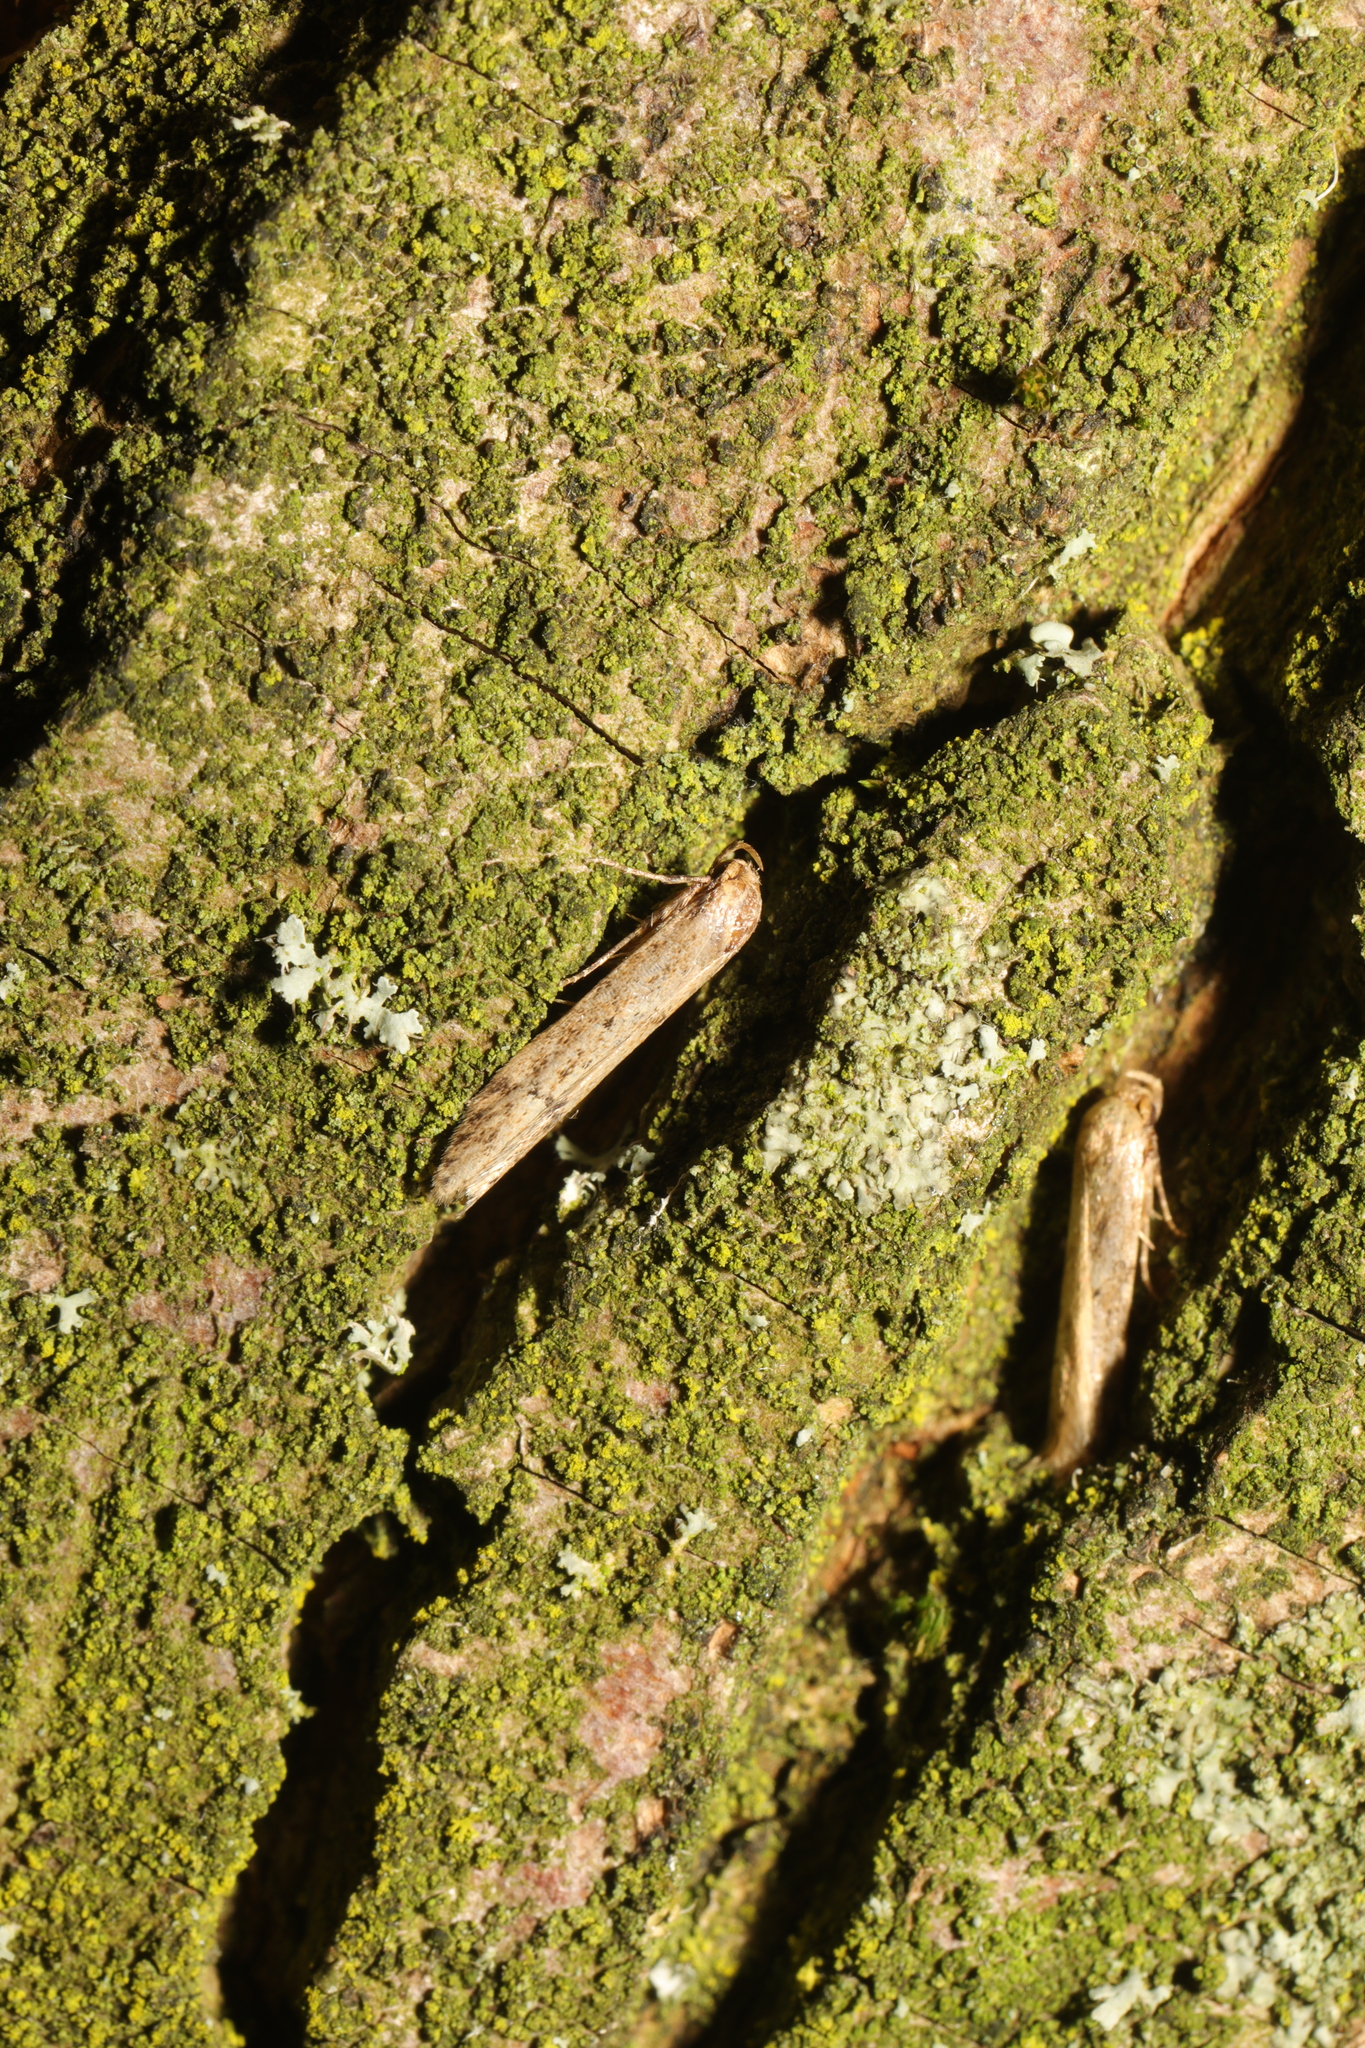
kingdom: Animalia
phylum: Arthropoda
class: Insecta
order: Lepidoptera
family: Blastobasidae
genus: Blastobasis
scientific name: Blastobasis adustella
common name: Dingy dowd
